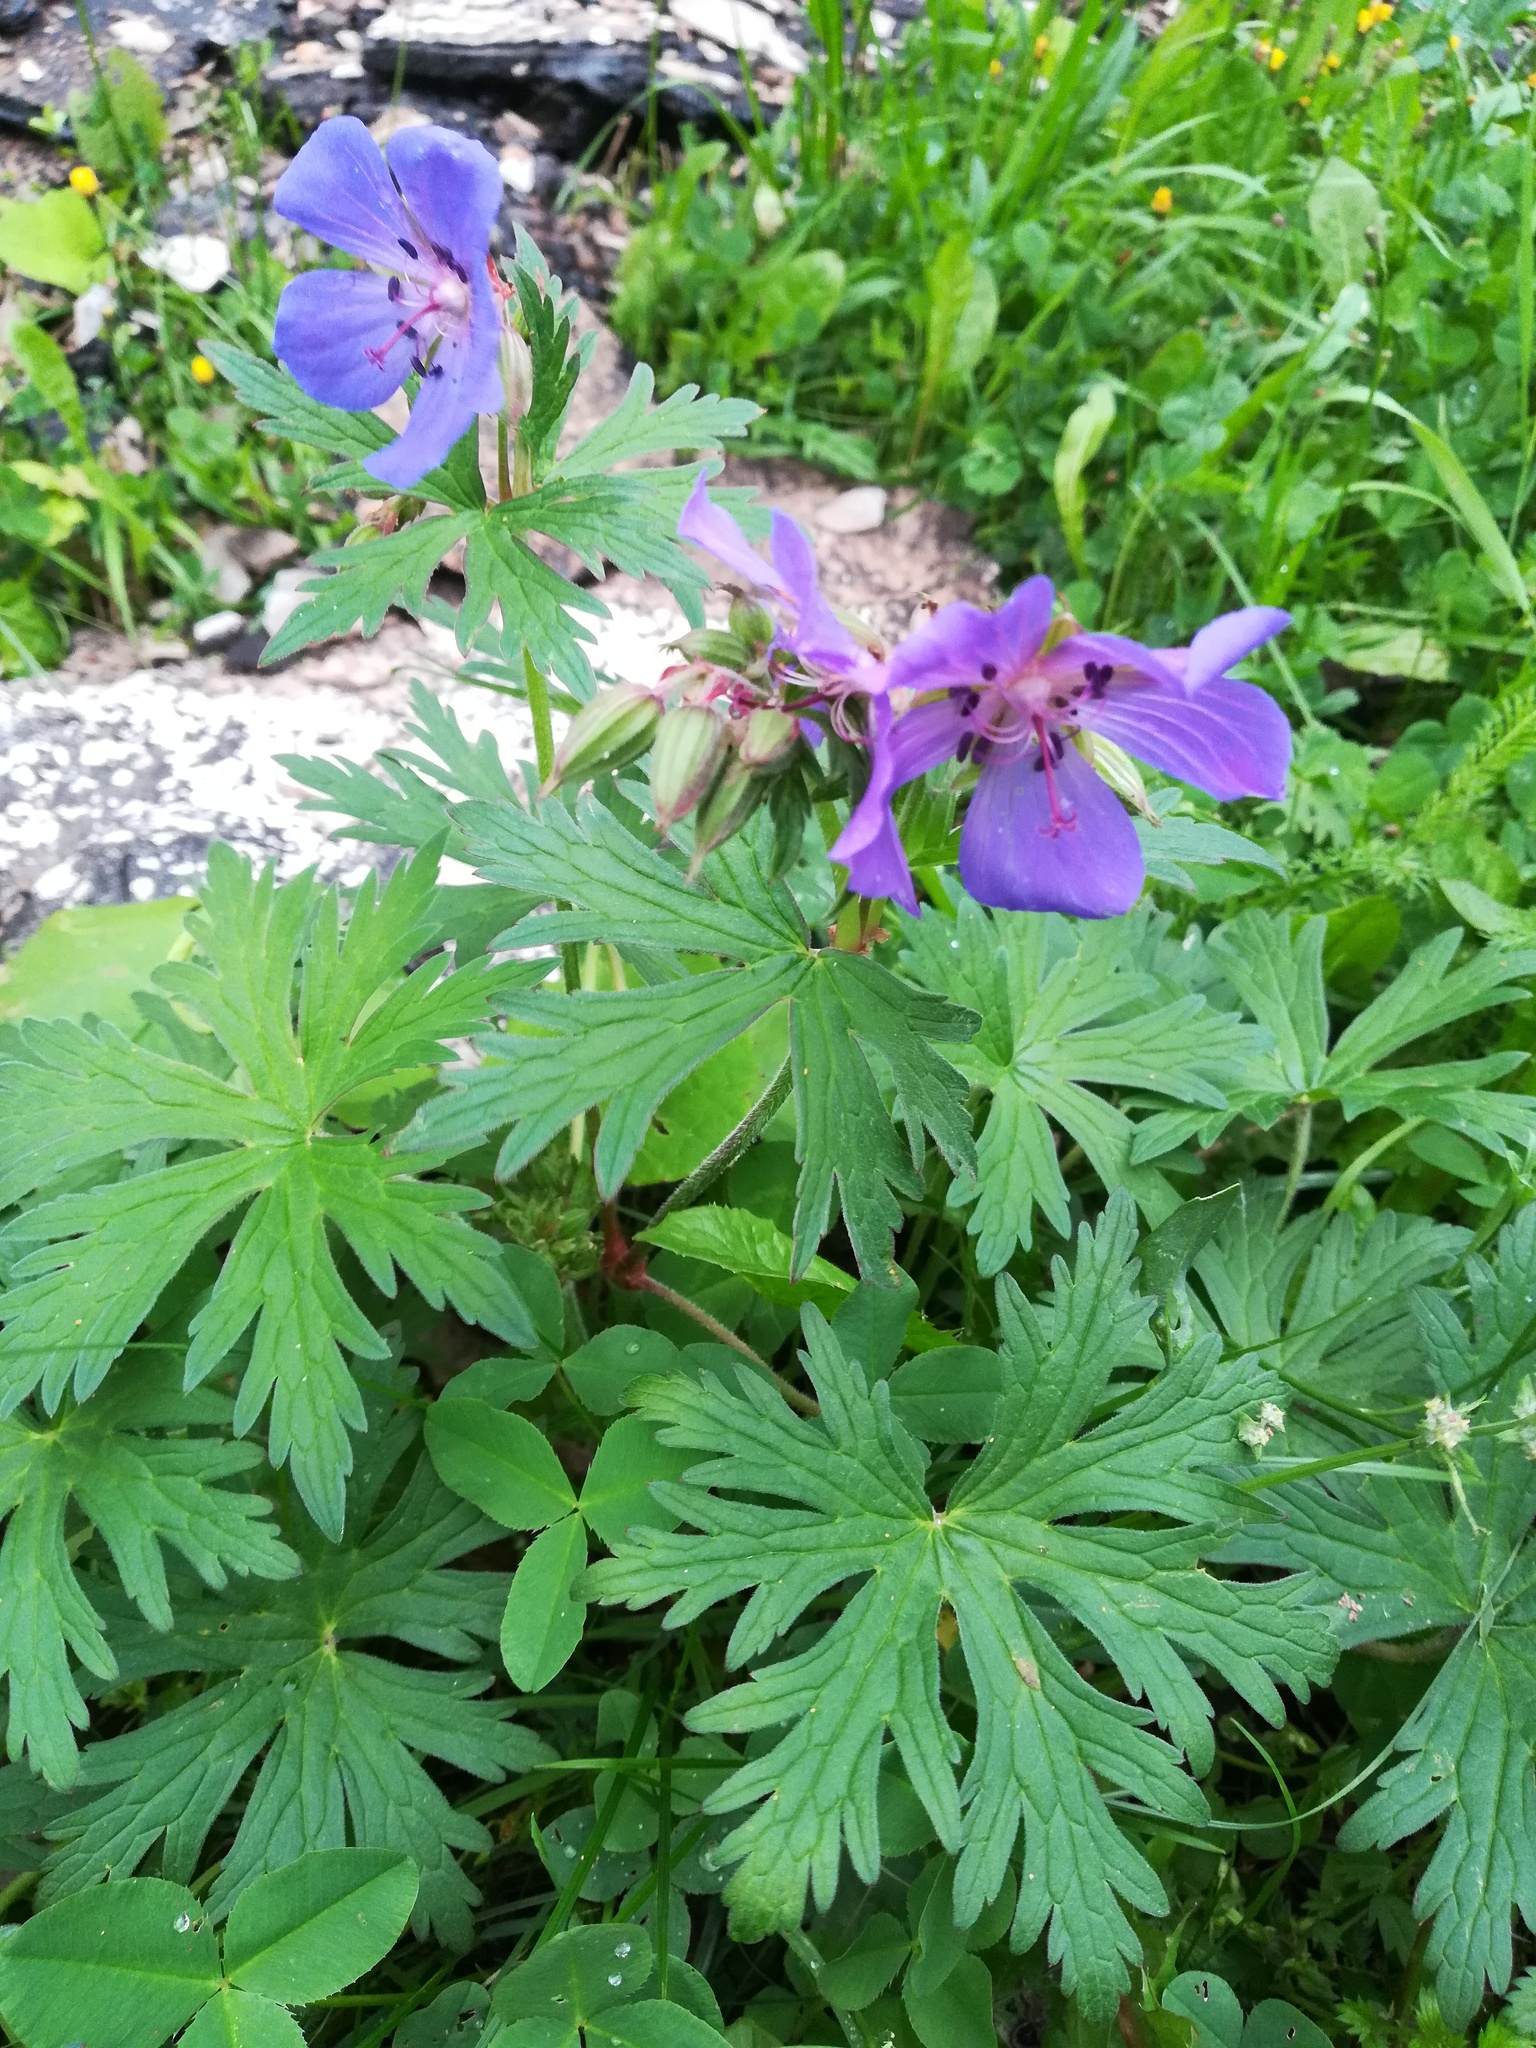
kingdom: Plantae
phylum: Tracheophyta
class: Magnoliopsida
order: Geraniales
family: Geraniaceae
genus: Geranium
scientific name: Geranium pratense
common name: Meadow crane's-bill
